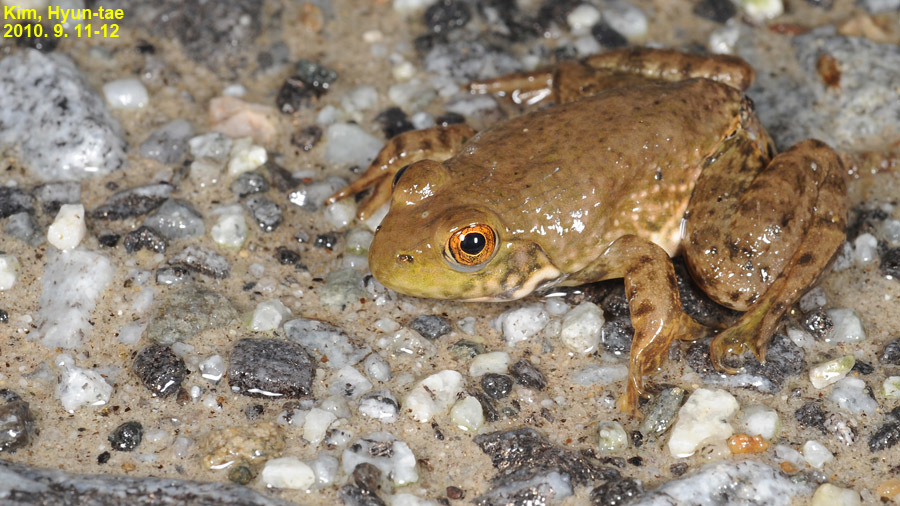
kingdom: Animalia
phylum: Chordata
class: Amphibia
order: Anura
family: Ranidae
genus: Lithobates
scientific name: Lithobates catesbeianus
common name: American bullfrog
